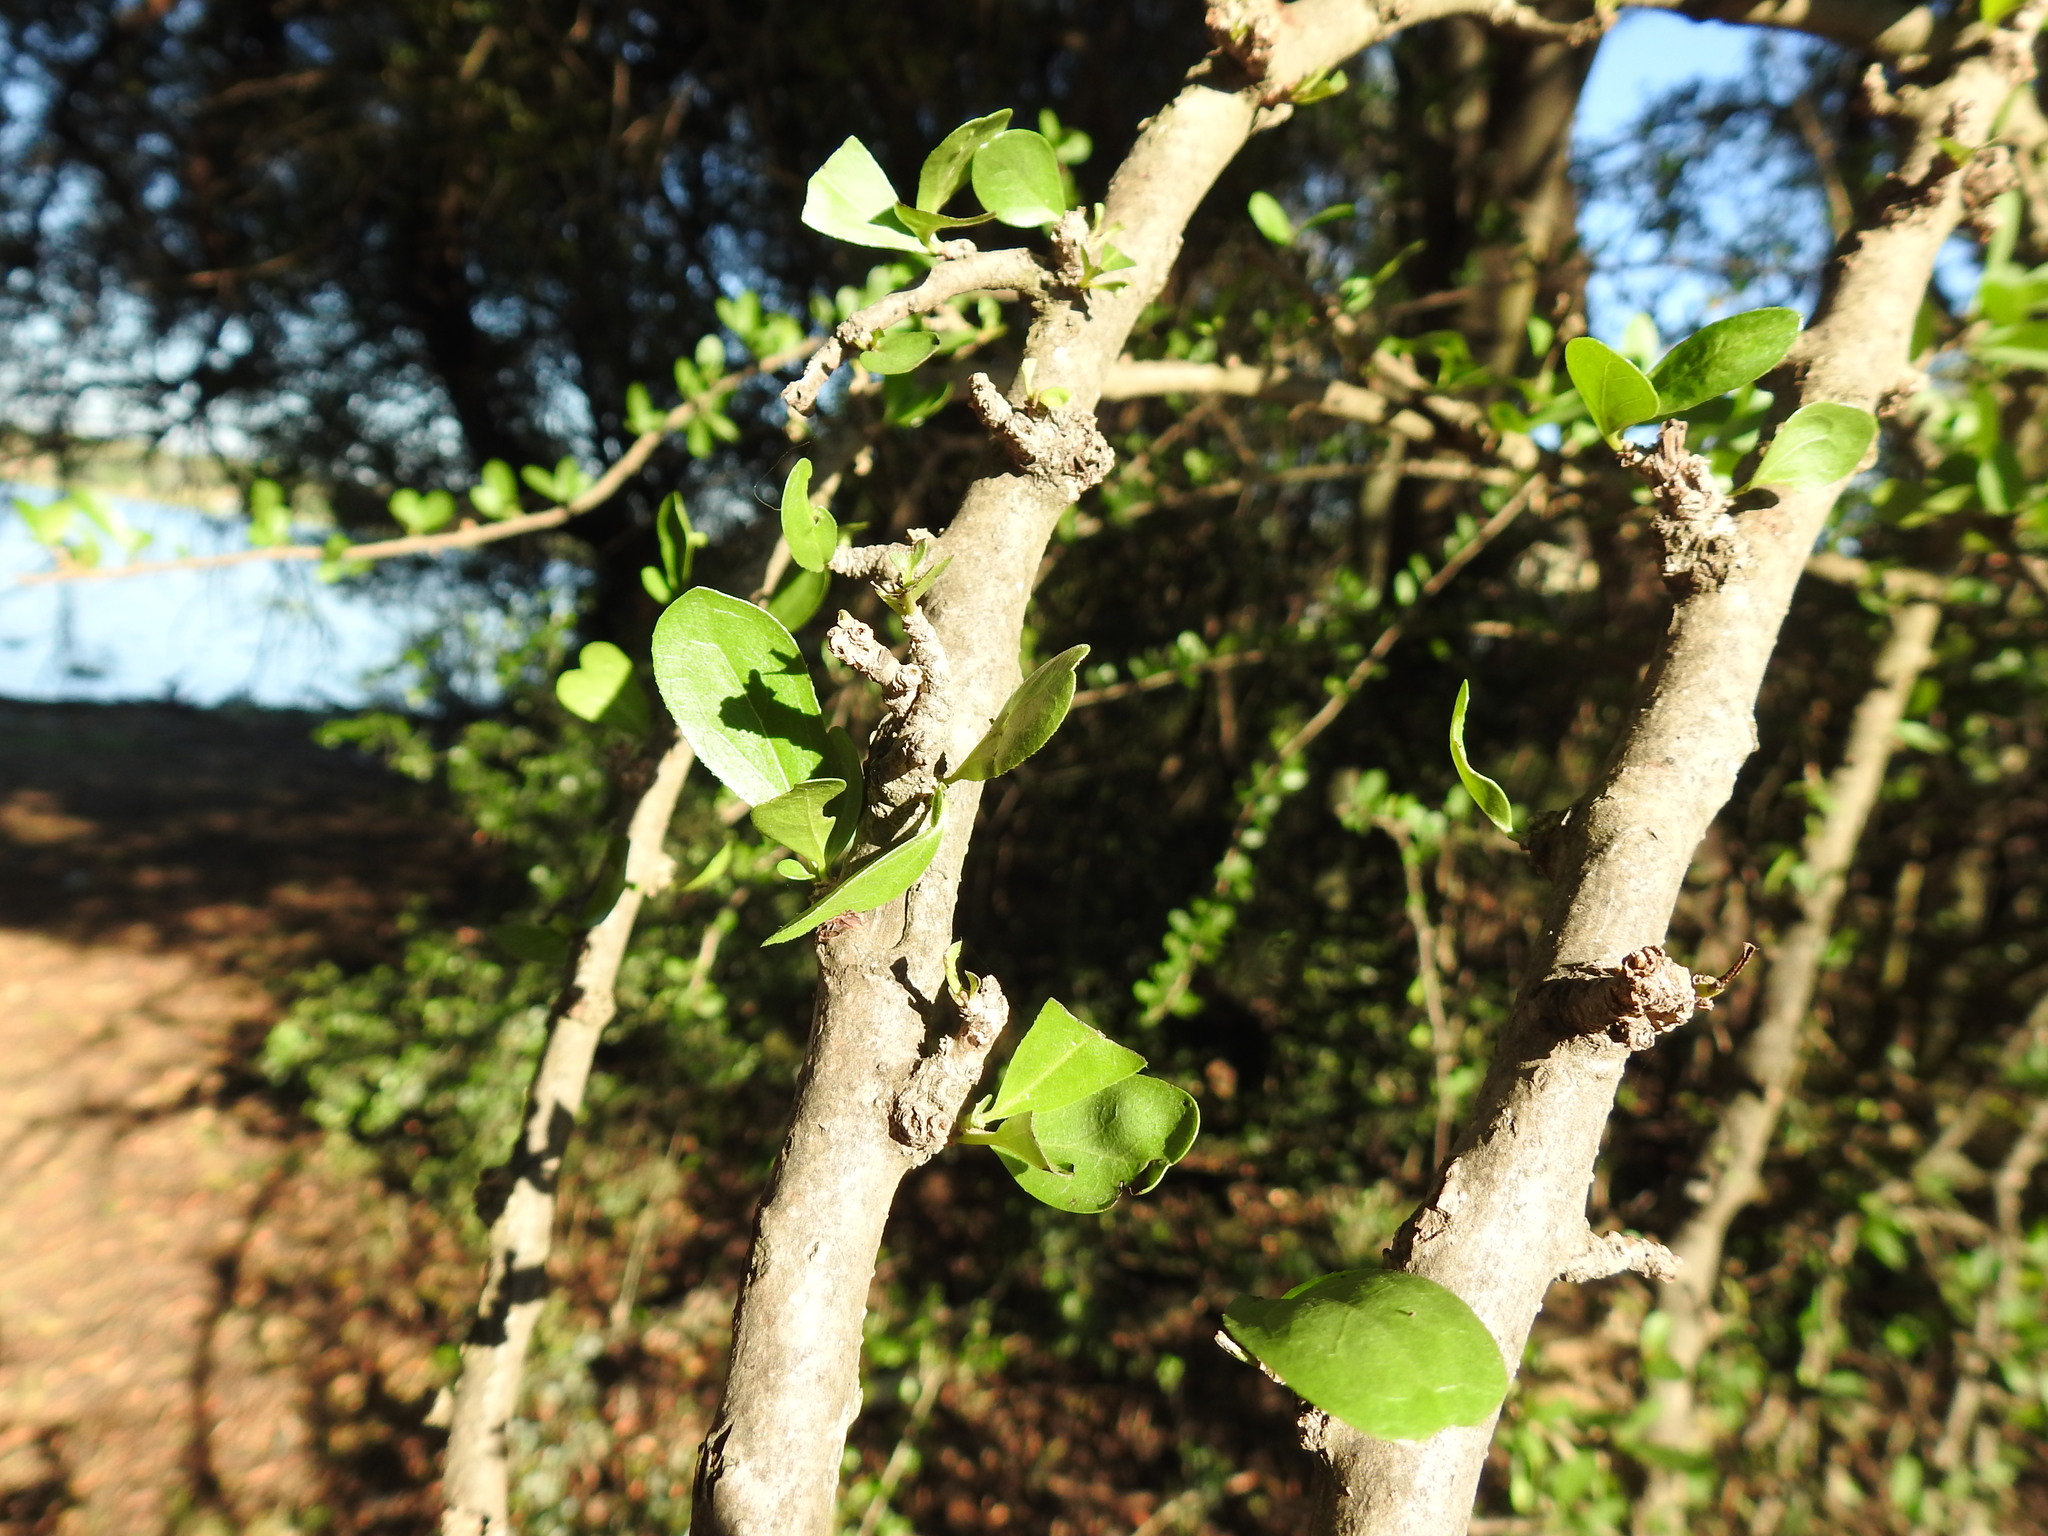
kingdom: Plantae
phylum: Tracheophyta
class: Magnoliopsida
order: Boraginales
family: Ehretiaceae
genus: Ehretia
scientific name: Ehretia rigida
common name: Cape lilac
